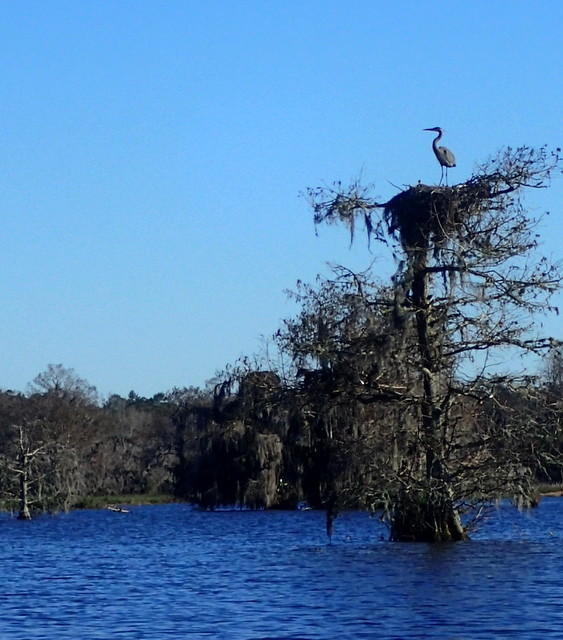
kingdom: Animalia
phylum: Chordata
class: Aves
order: Pelecaniformes
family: Ardeidae
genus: Ardea
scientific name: Ardea herodias
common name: Great blue heron
